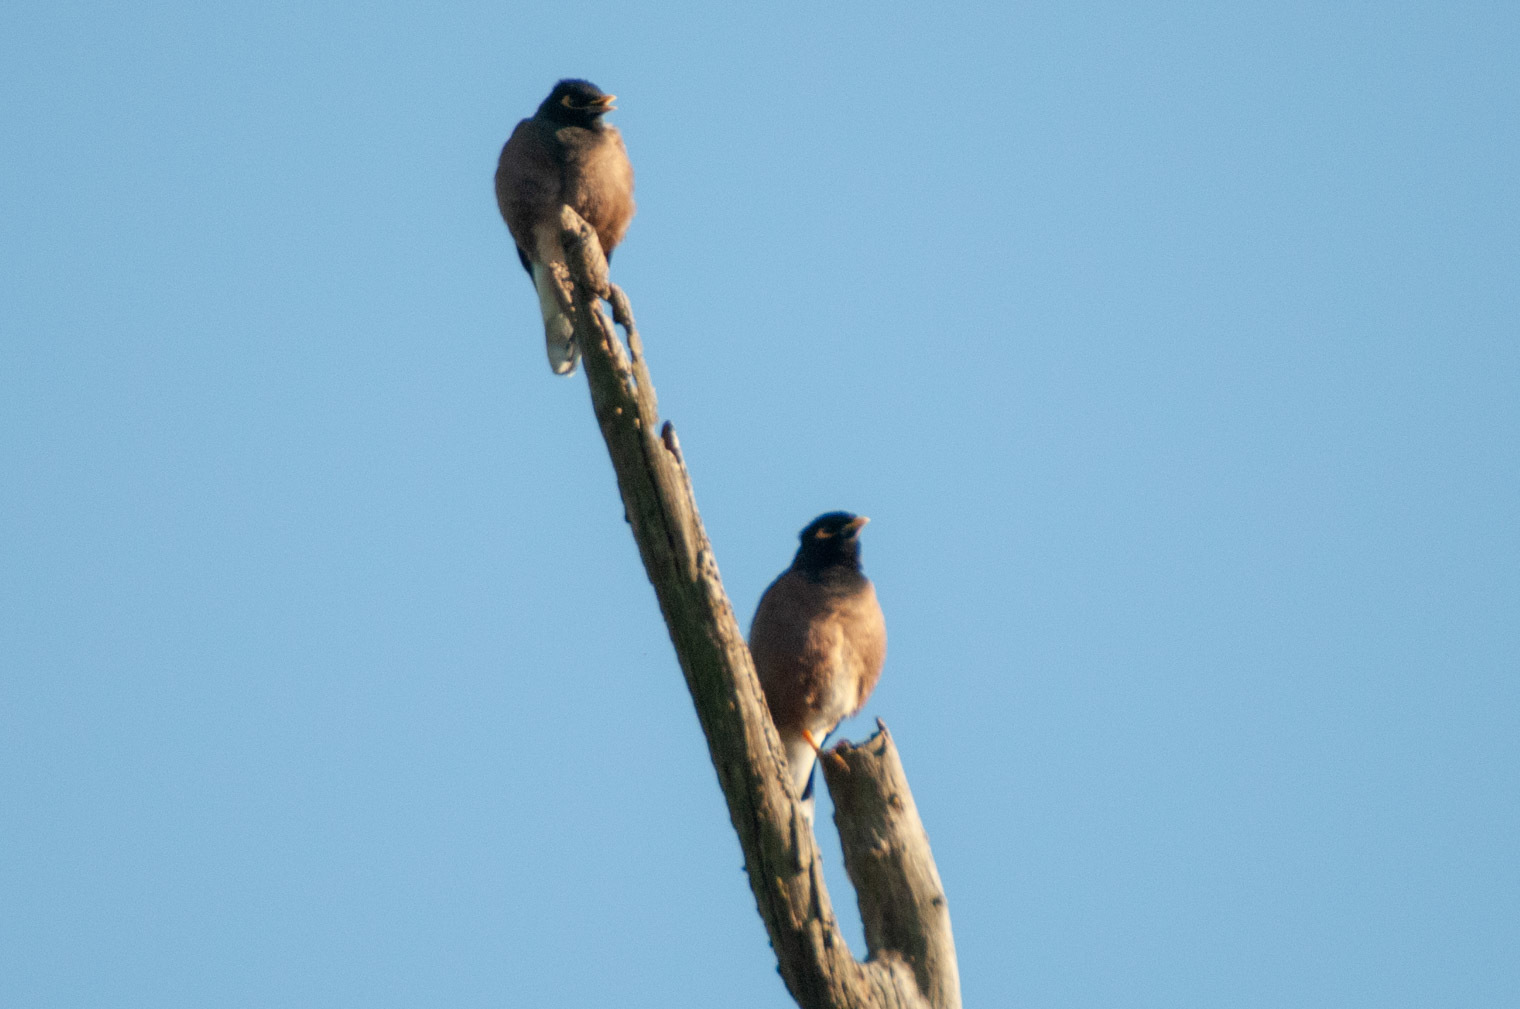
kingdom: Animalia
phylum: Chordata
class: Aves
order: Passeriformes
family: Sturnidae
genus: Acridotheres
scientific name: Acridotheres tristis
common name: Common myna
